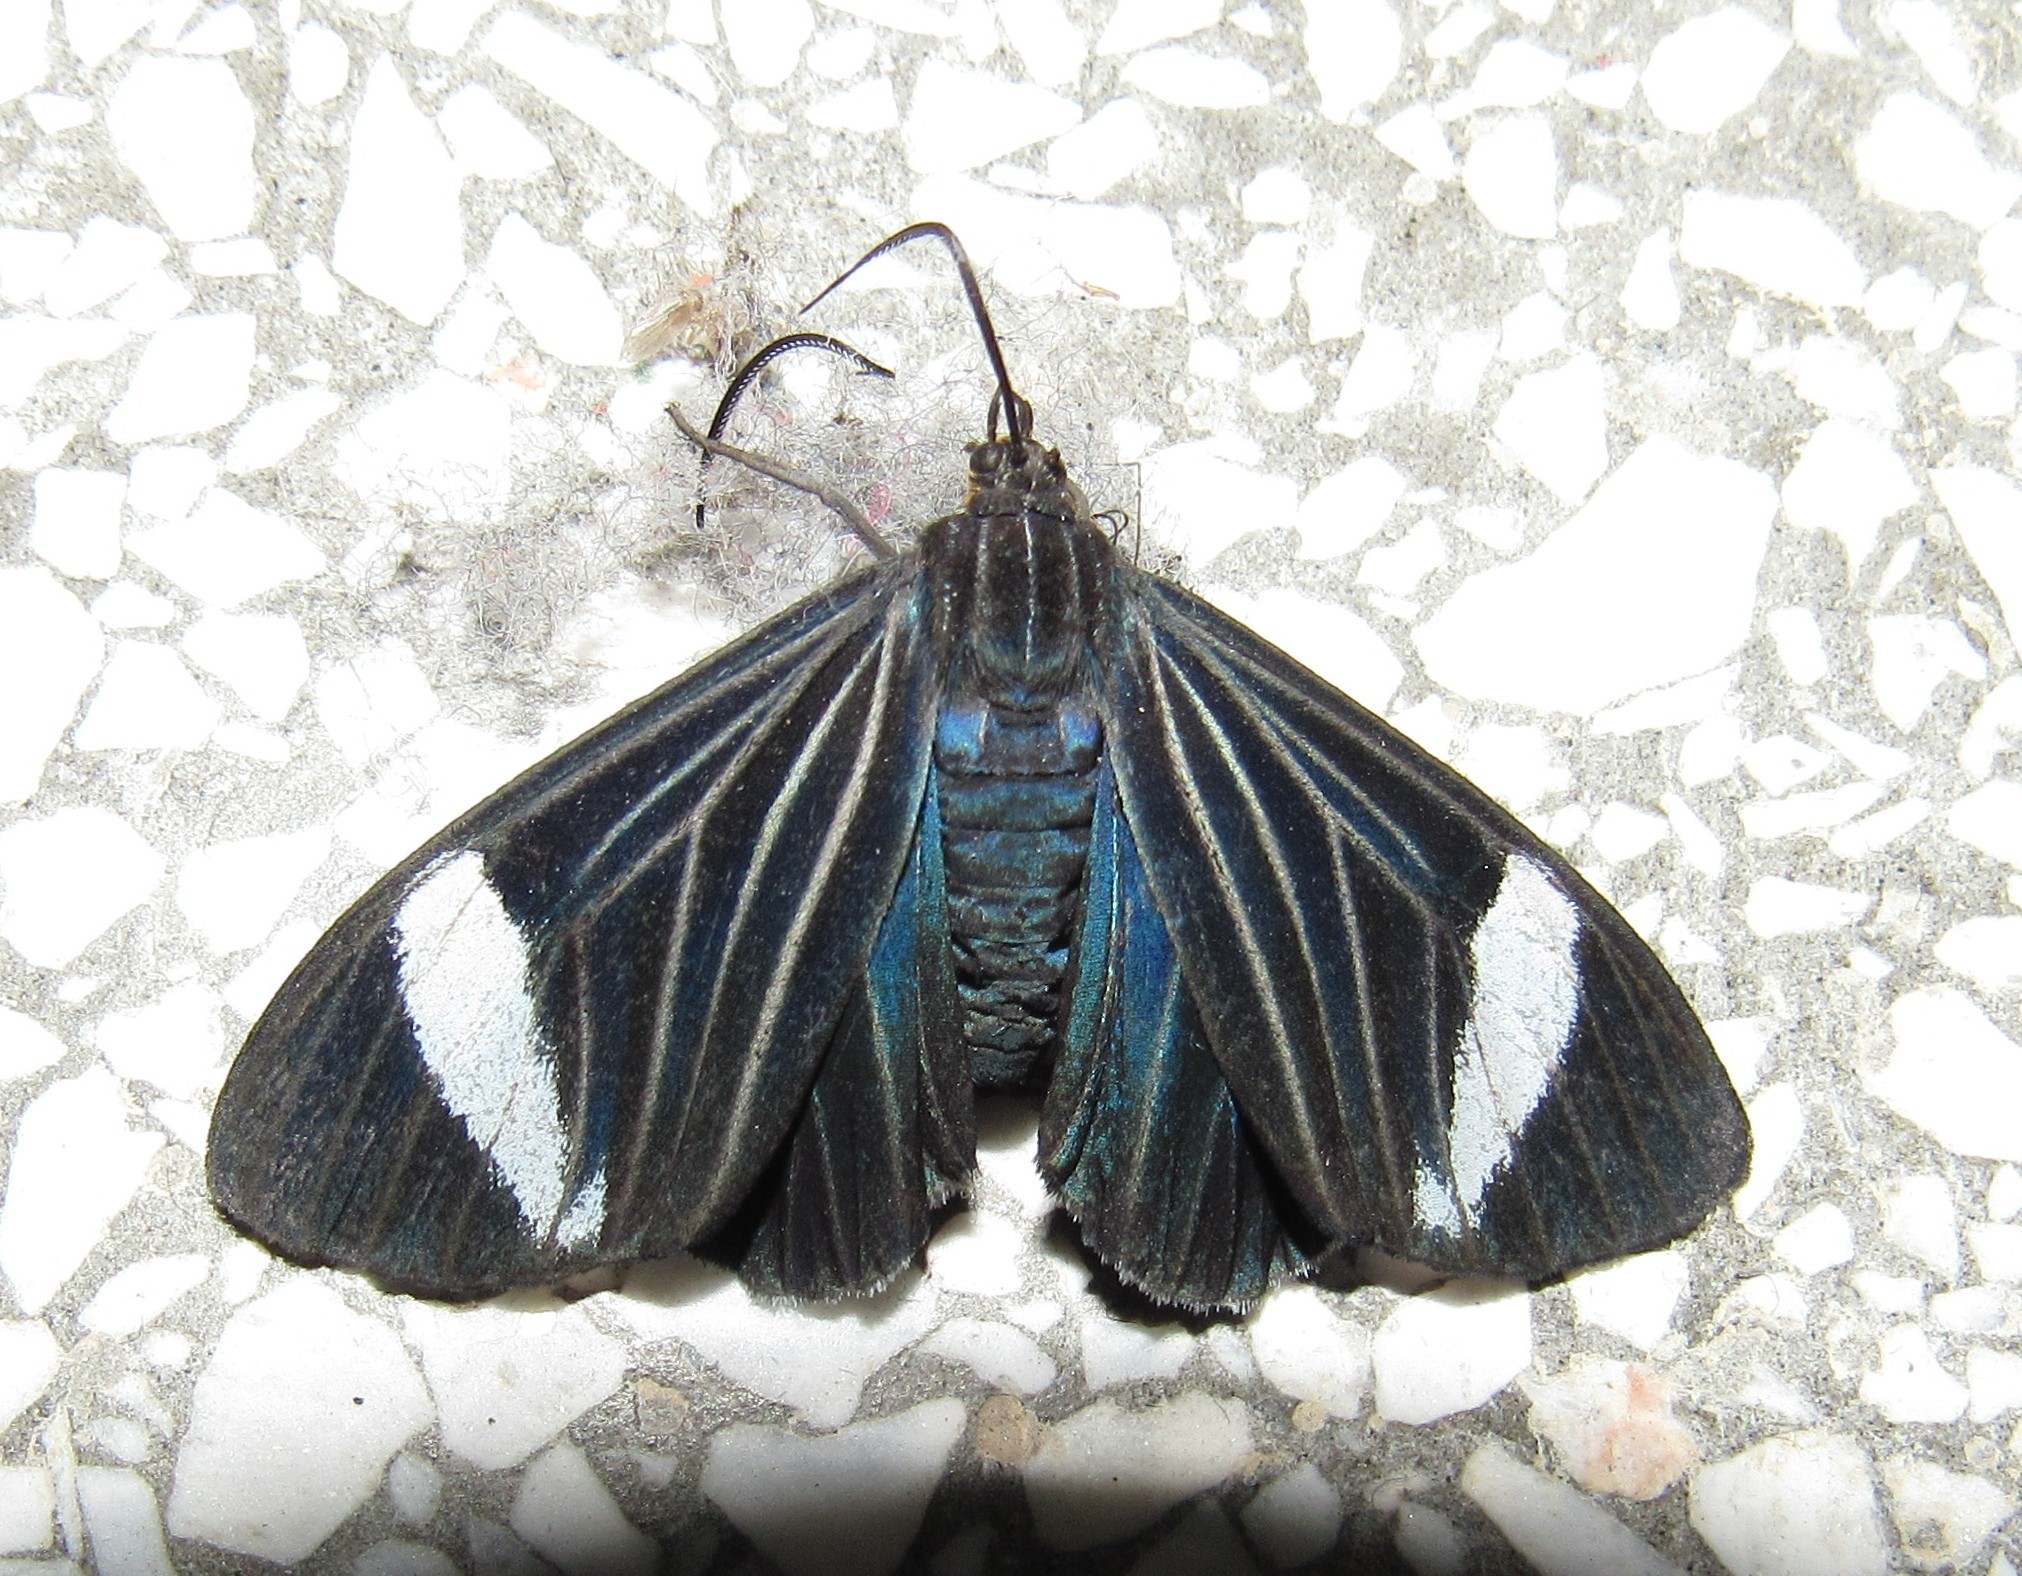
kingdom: Animalia
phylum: Arthropoda
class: Insecta
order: Lepidoptera
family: Erebidae
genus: Ctenucha
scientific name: Ctenucha braganza
